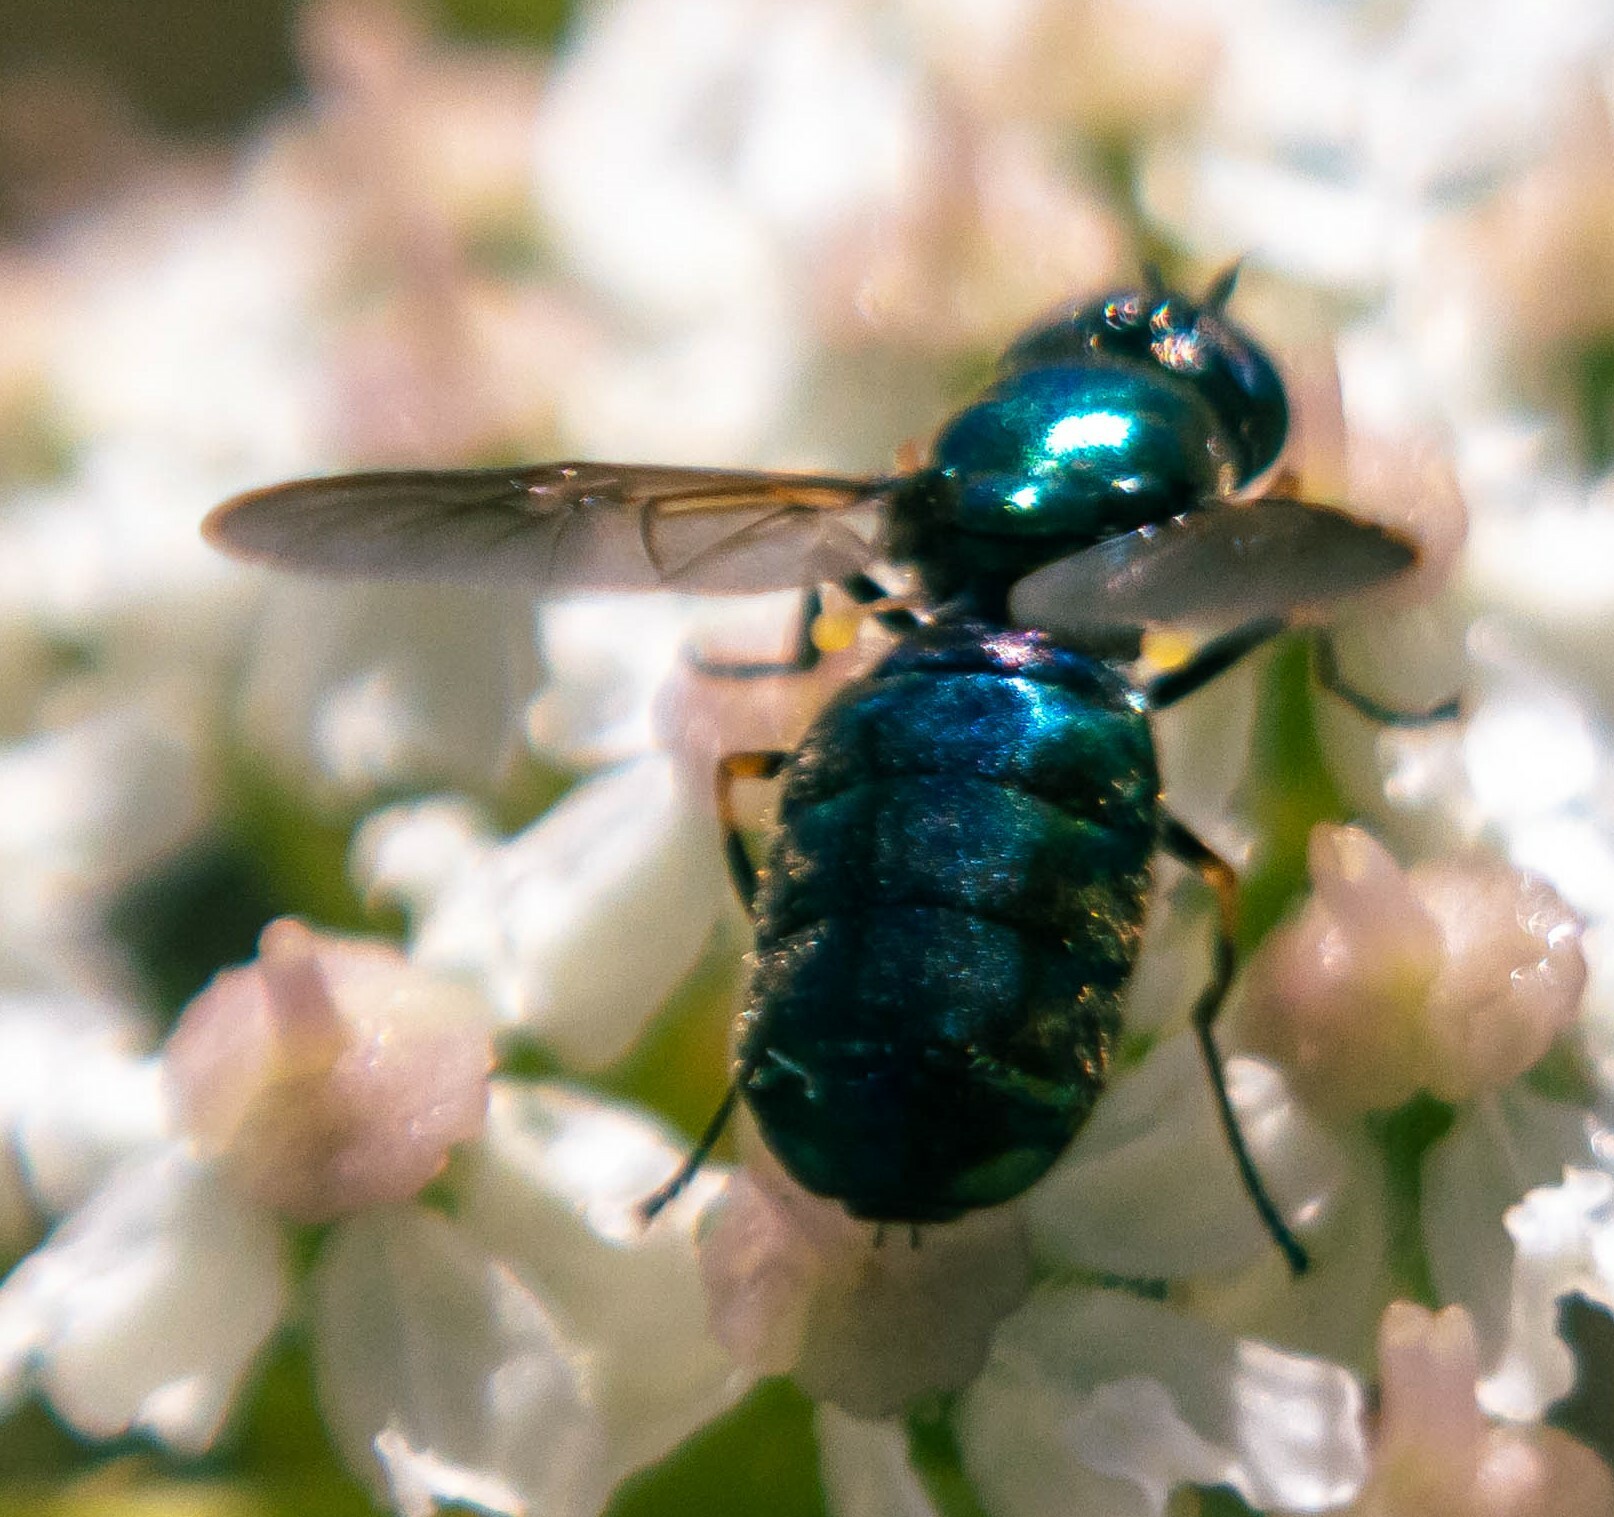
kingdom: Animalia
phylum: Arthropoda
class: Insecta
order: Diptera
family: Stratiomyidae
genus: Chloromyia
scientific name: Chloromyia formosa
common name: Soldier fly
